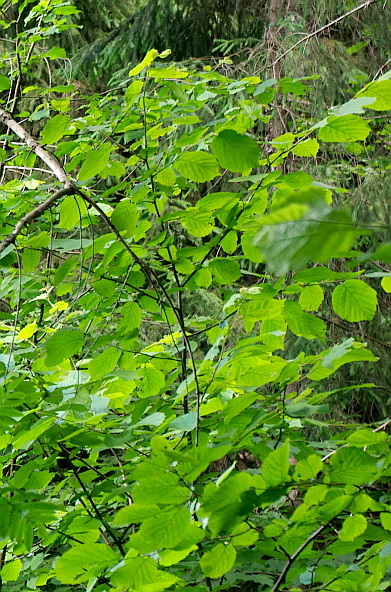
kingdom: Plantae
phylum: Tracheophyta
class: Magnoliopsida
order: Fagales
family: Betulaceae
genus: Corylus
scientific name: Corylus avellana
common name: European hazel
